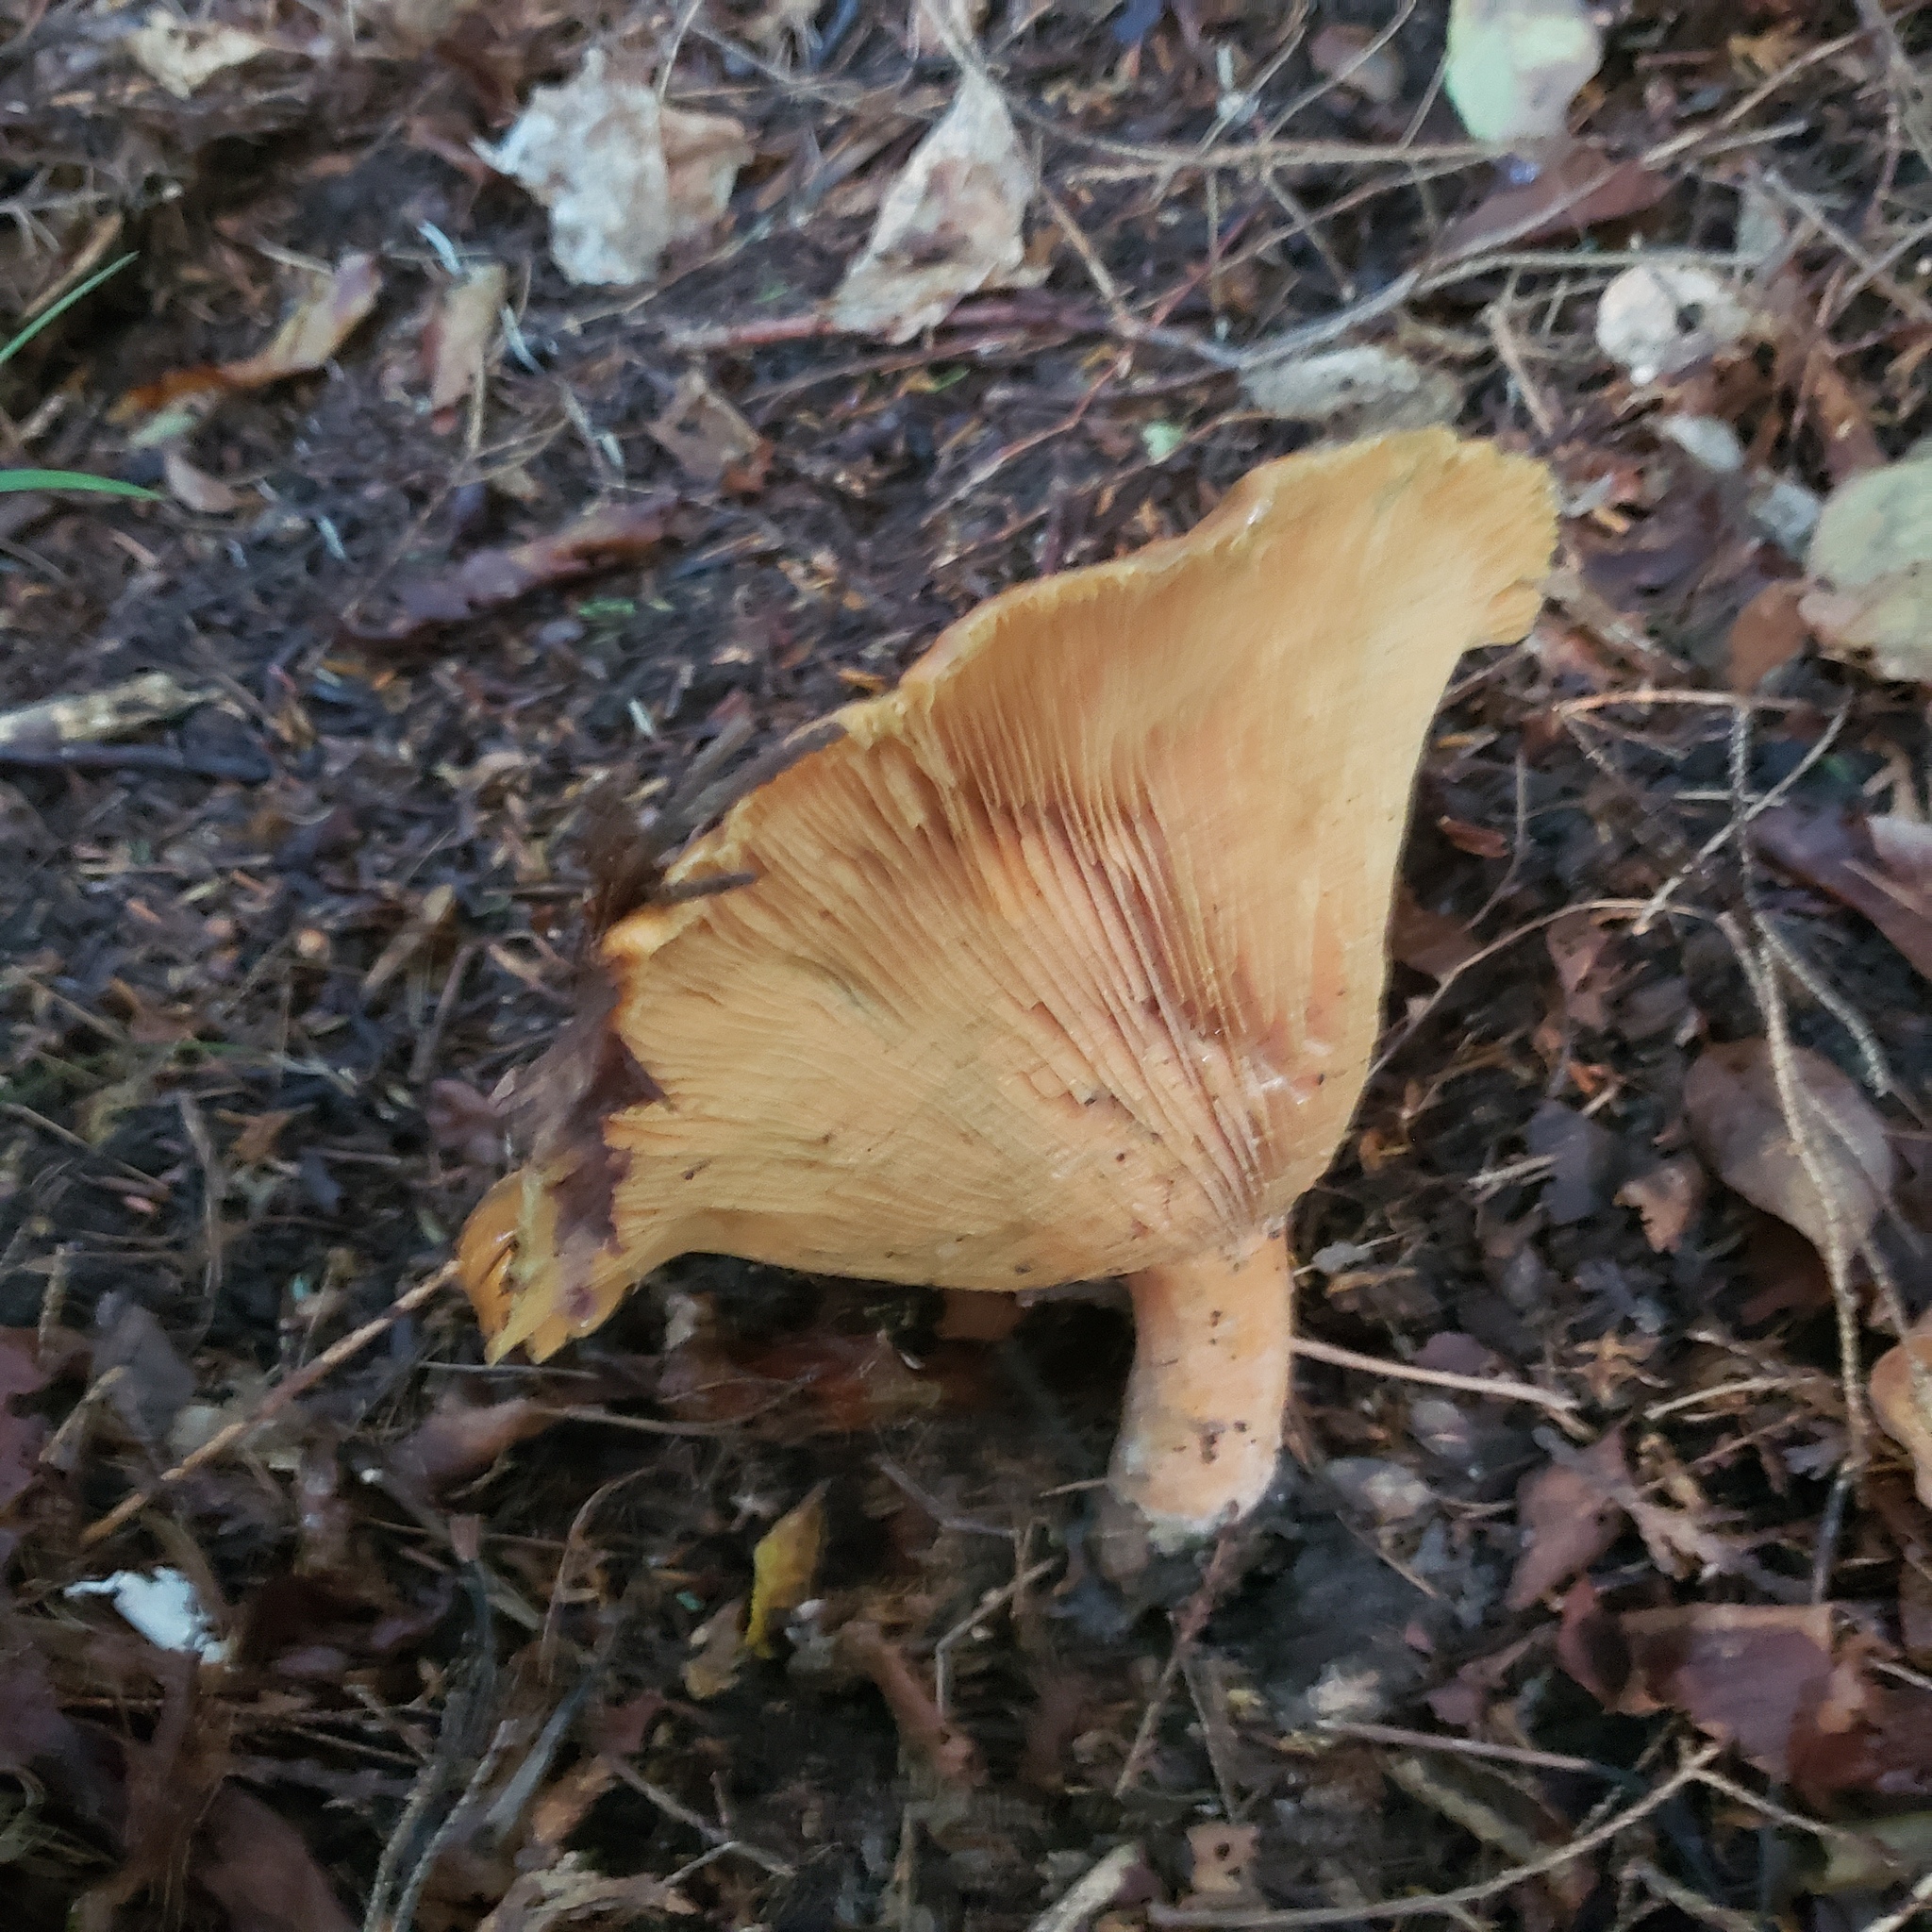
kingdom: Fungi
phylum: Basidiomycota
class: Agaricomycetes
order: Russulales
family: Russulaceae
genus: Lactarius
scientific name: Lactarius deterrimus
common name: False saffron milkcap
